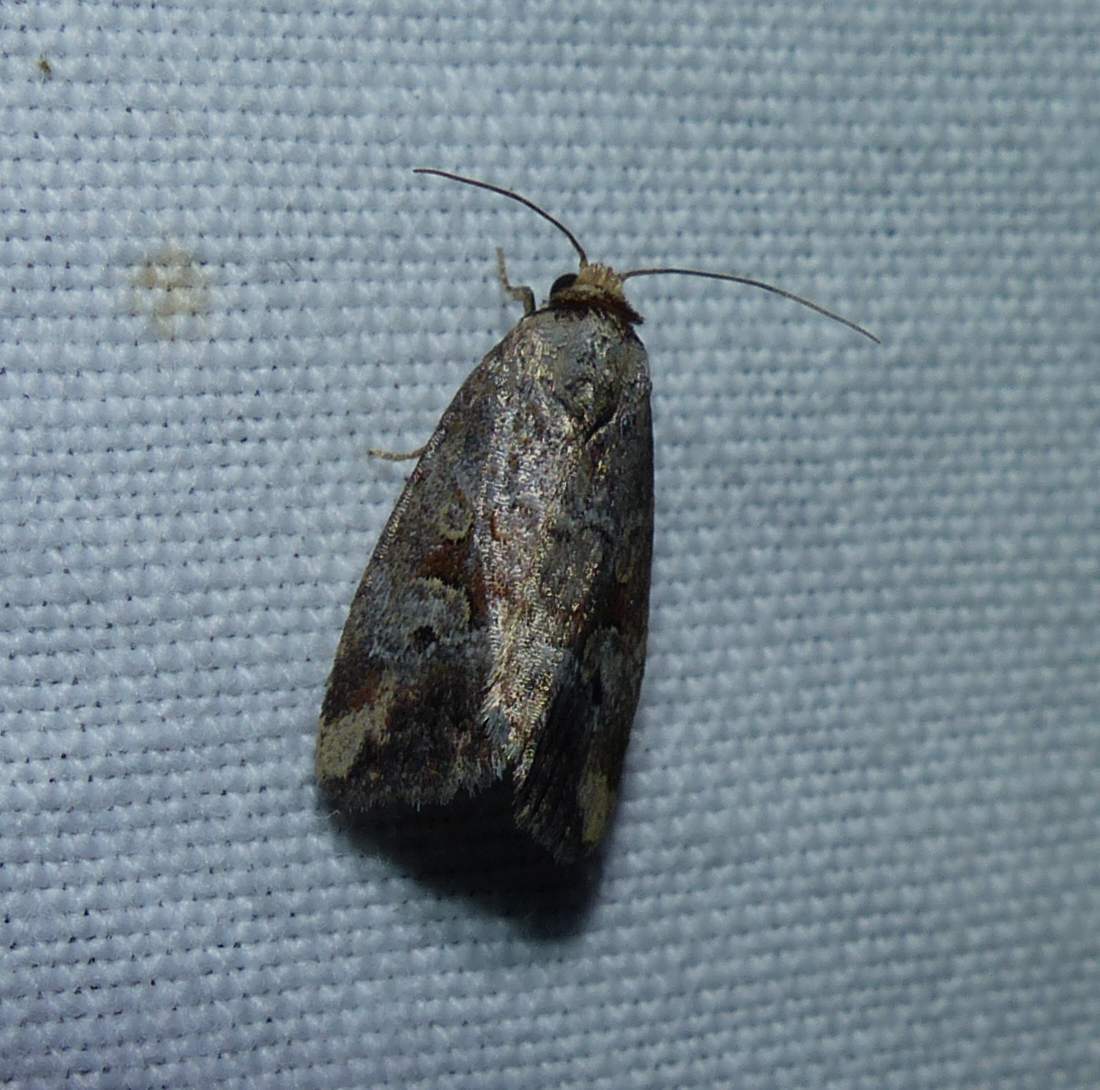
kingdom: Animalia
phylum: Arthropoda
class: Insecta
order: Lepidoptera
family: Noctuidae
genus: Elaphria
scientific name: Elaphria alapallida
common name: Pale-winged midget
